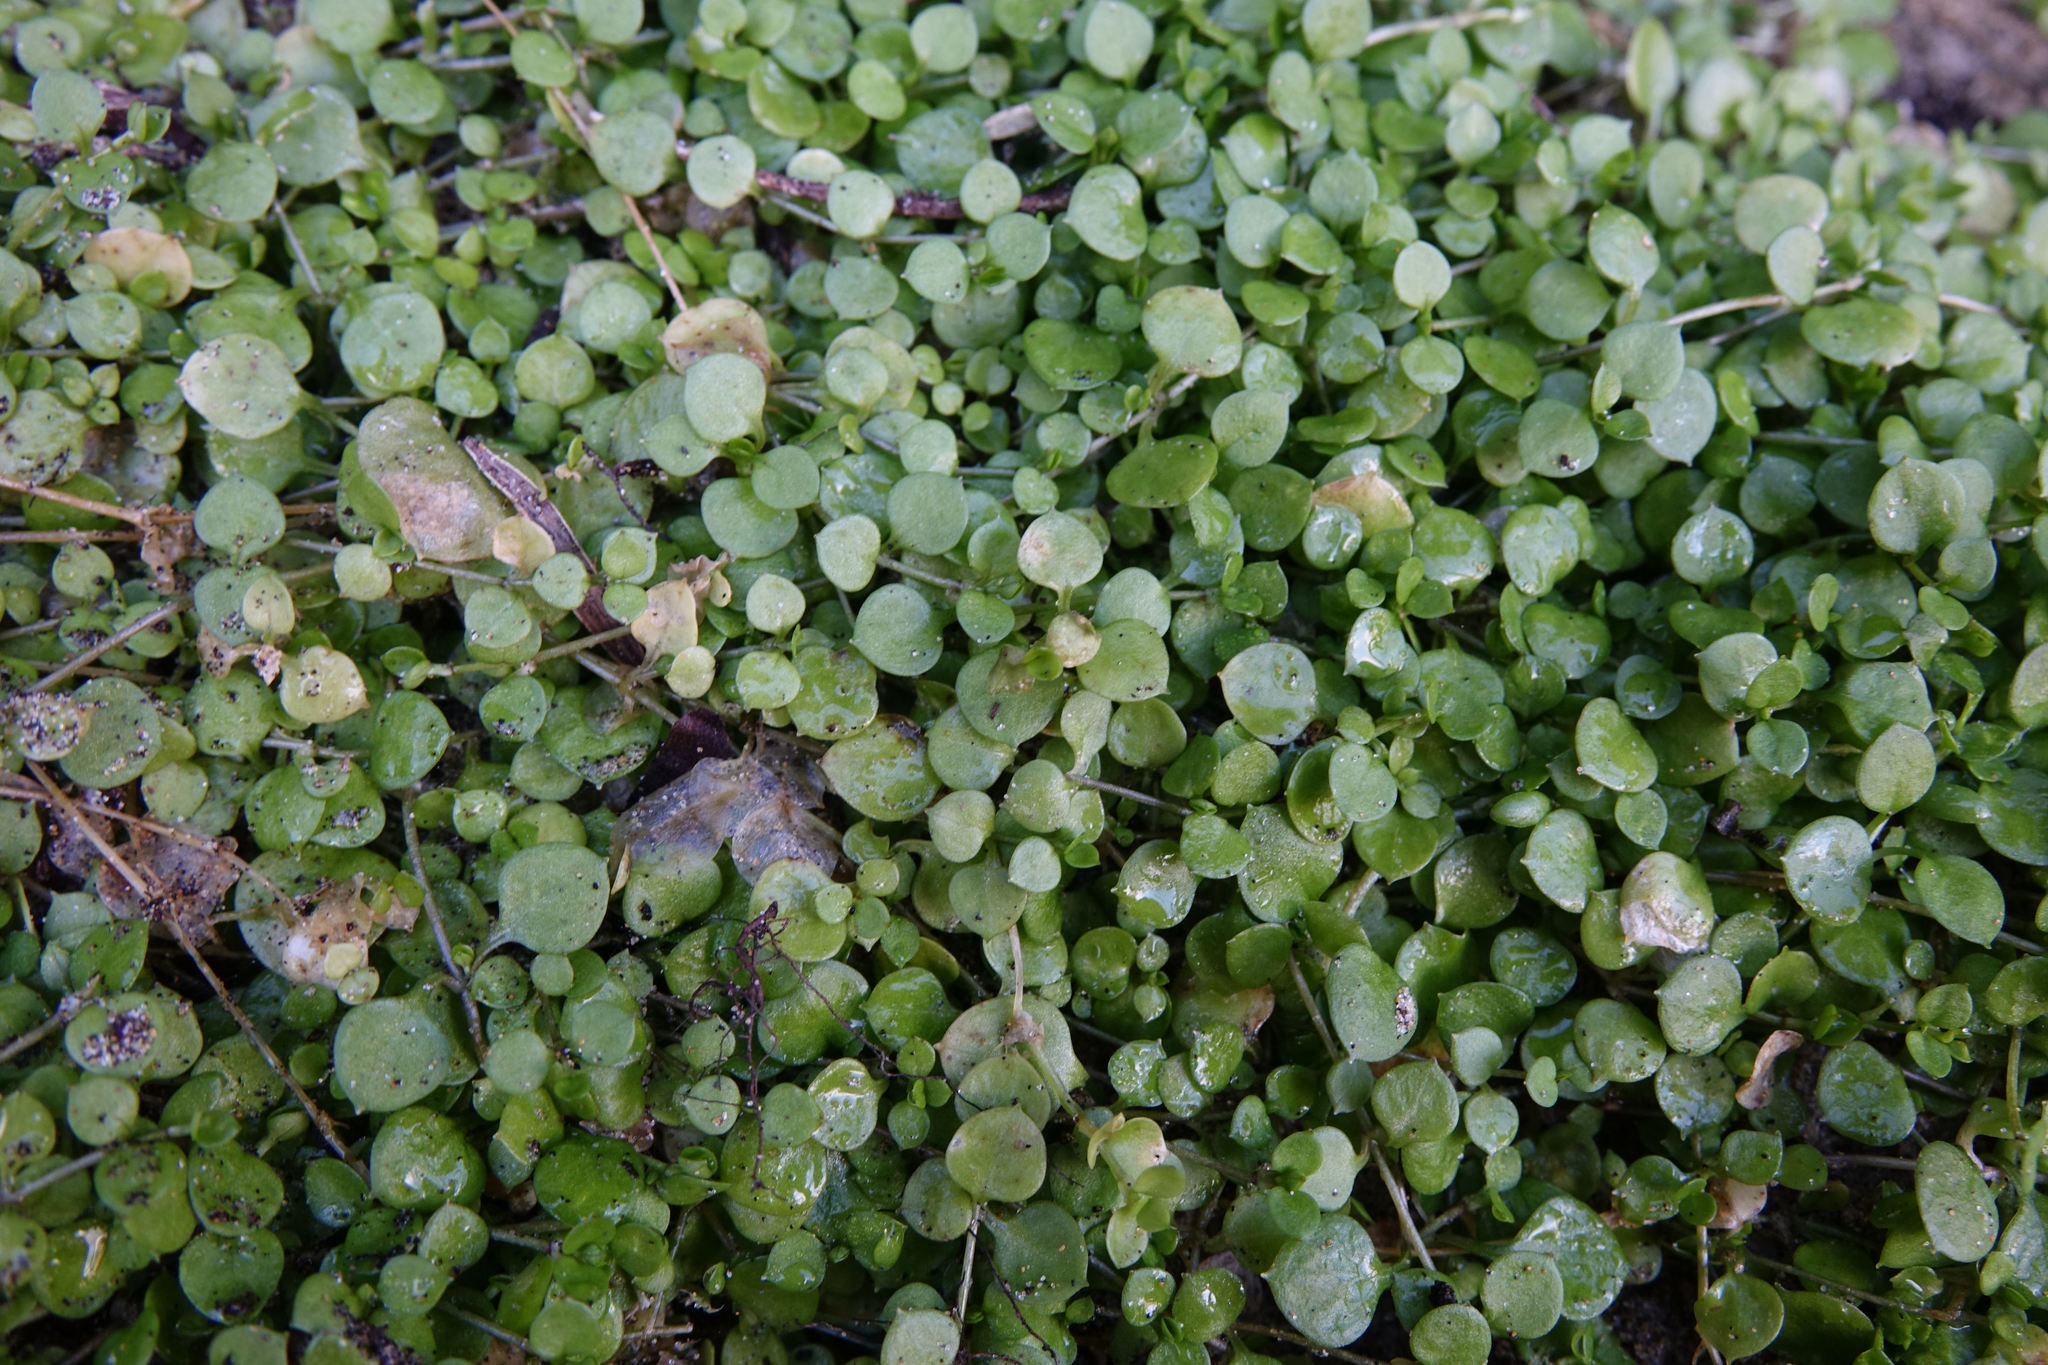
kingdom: Plantae
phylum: Tracheophyta
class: Magnoliopsida
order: Caryophyllales
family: Caryophyllaceae
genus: Stellaria
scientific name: Stellaria parviflora
